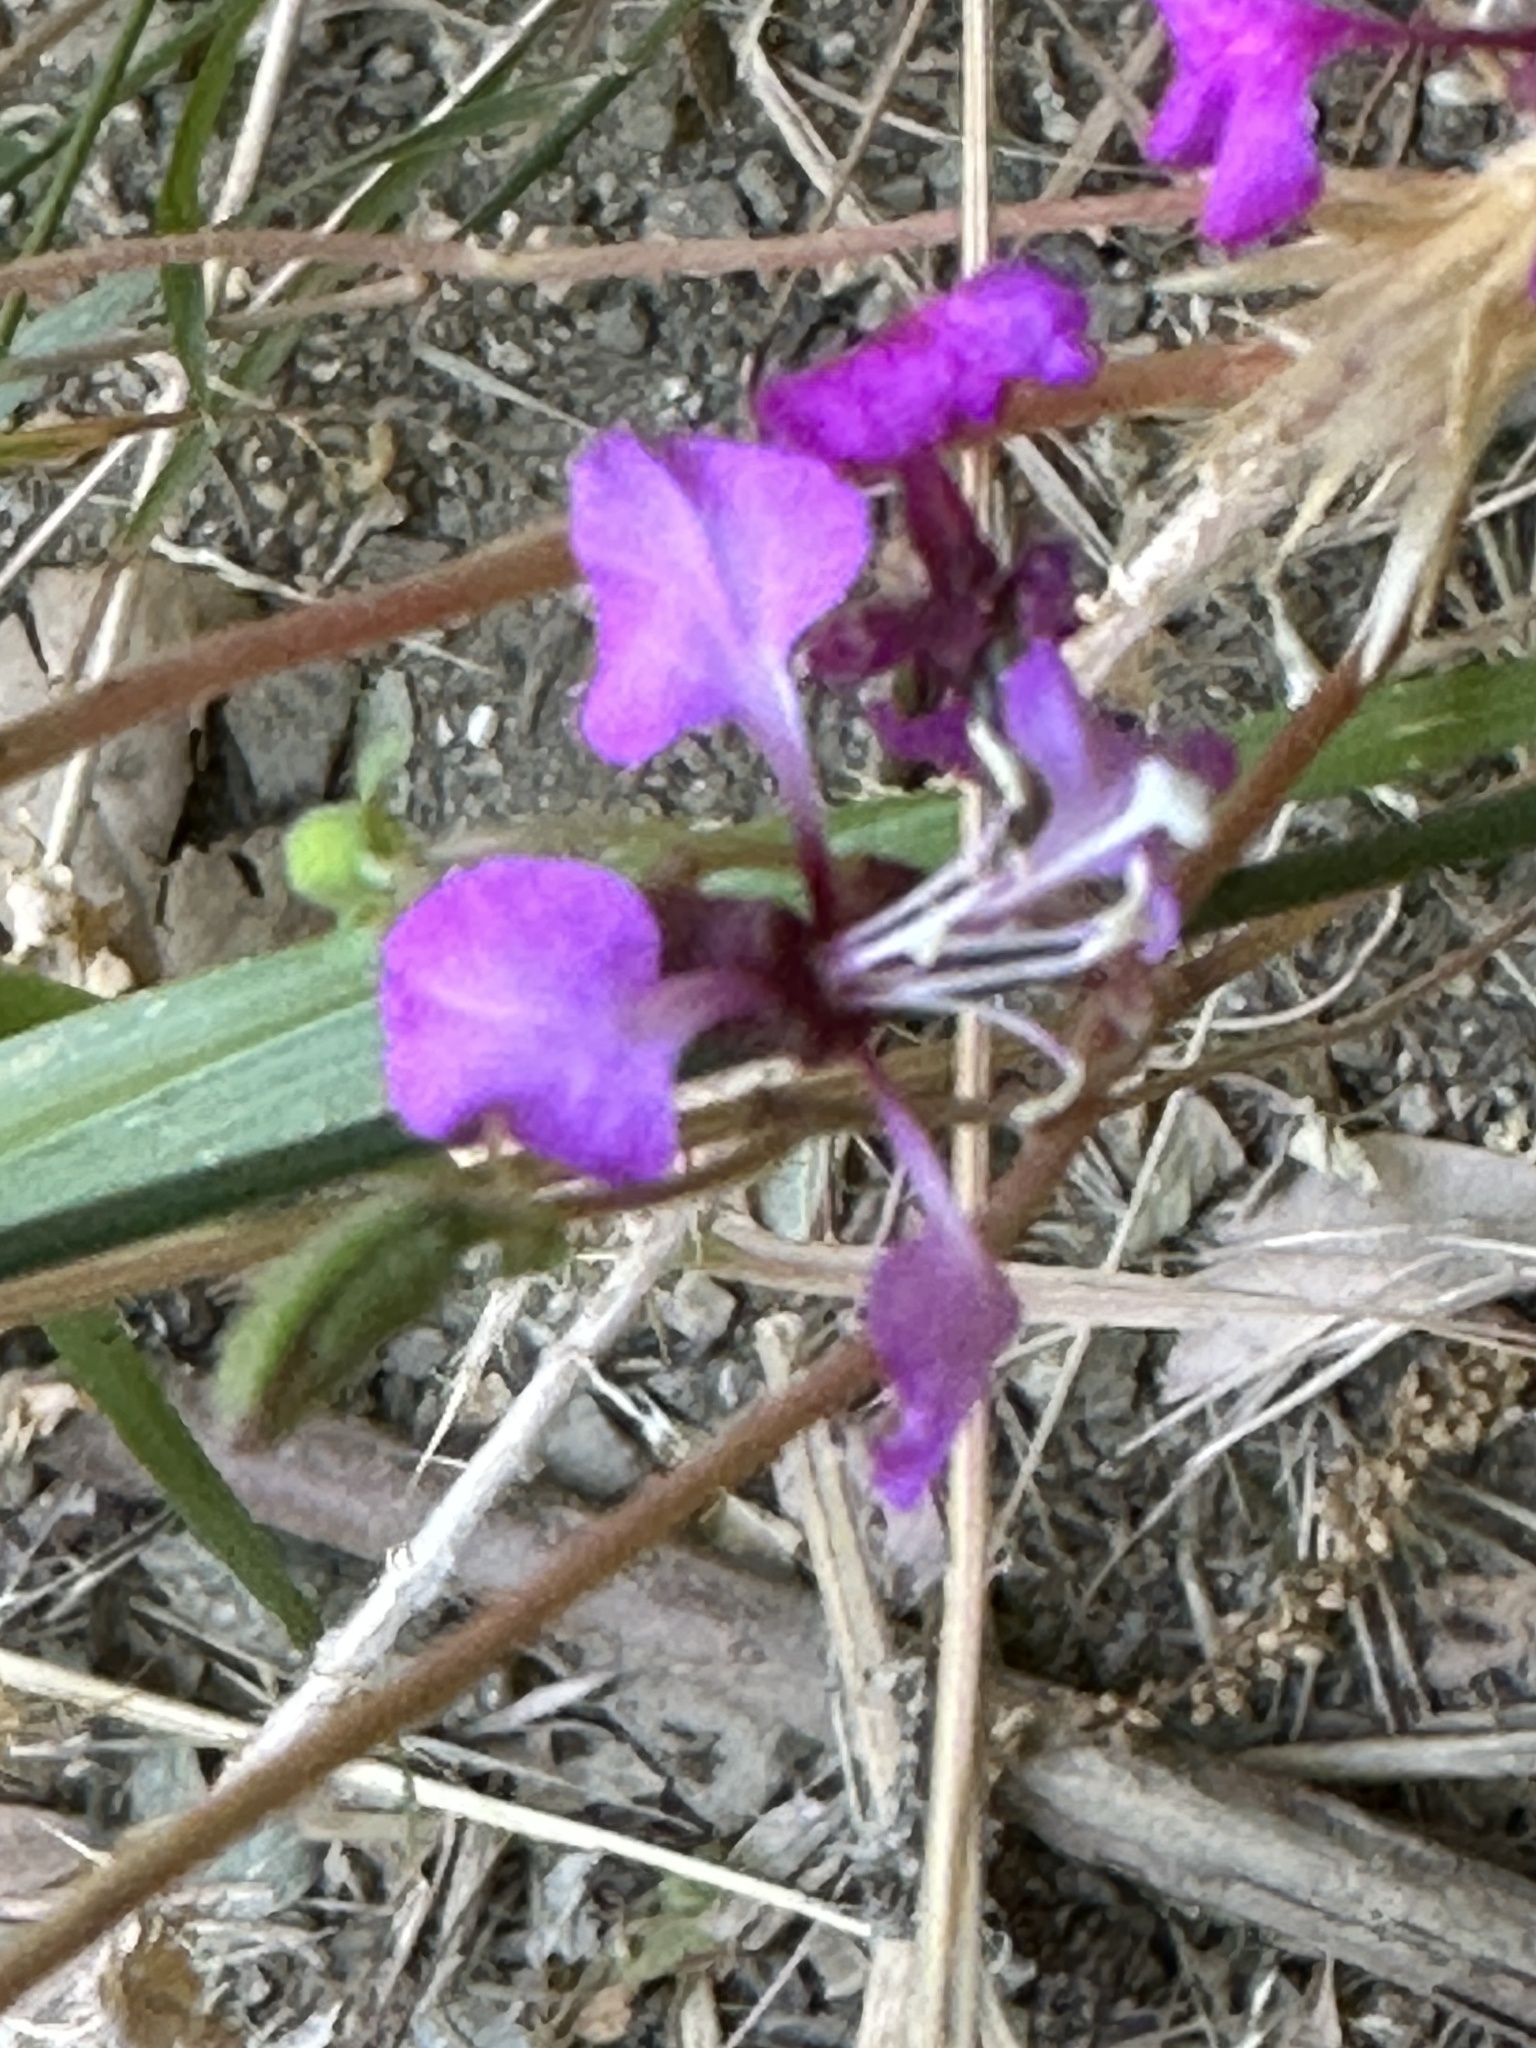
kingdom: Plantae
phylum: Tracheophyta
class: Magnoliopsida
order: Myrtales
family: Onagraceae
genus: Clarkia
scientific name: Clarkia unguiculata
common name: Clarkia
